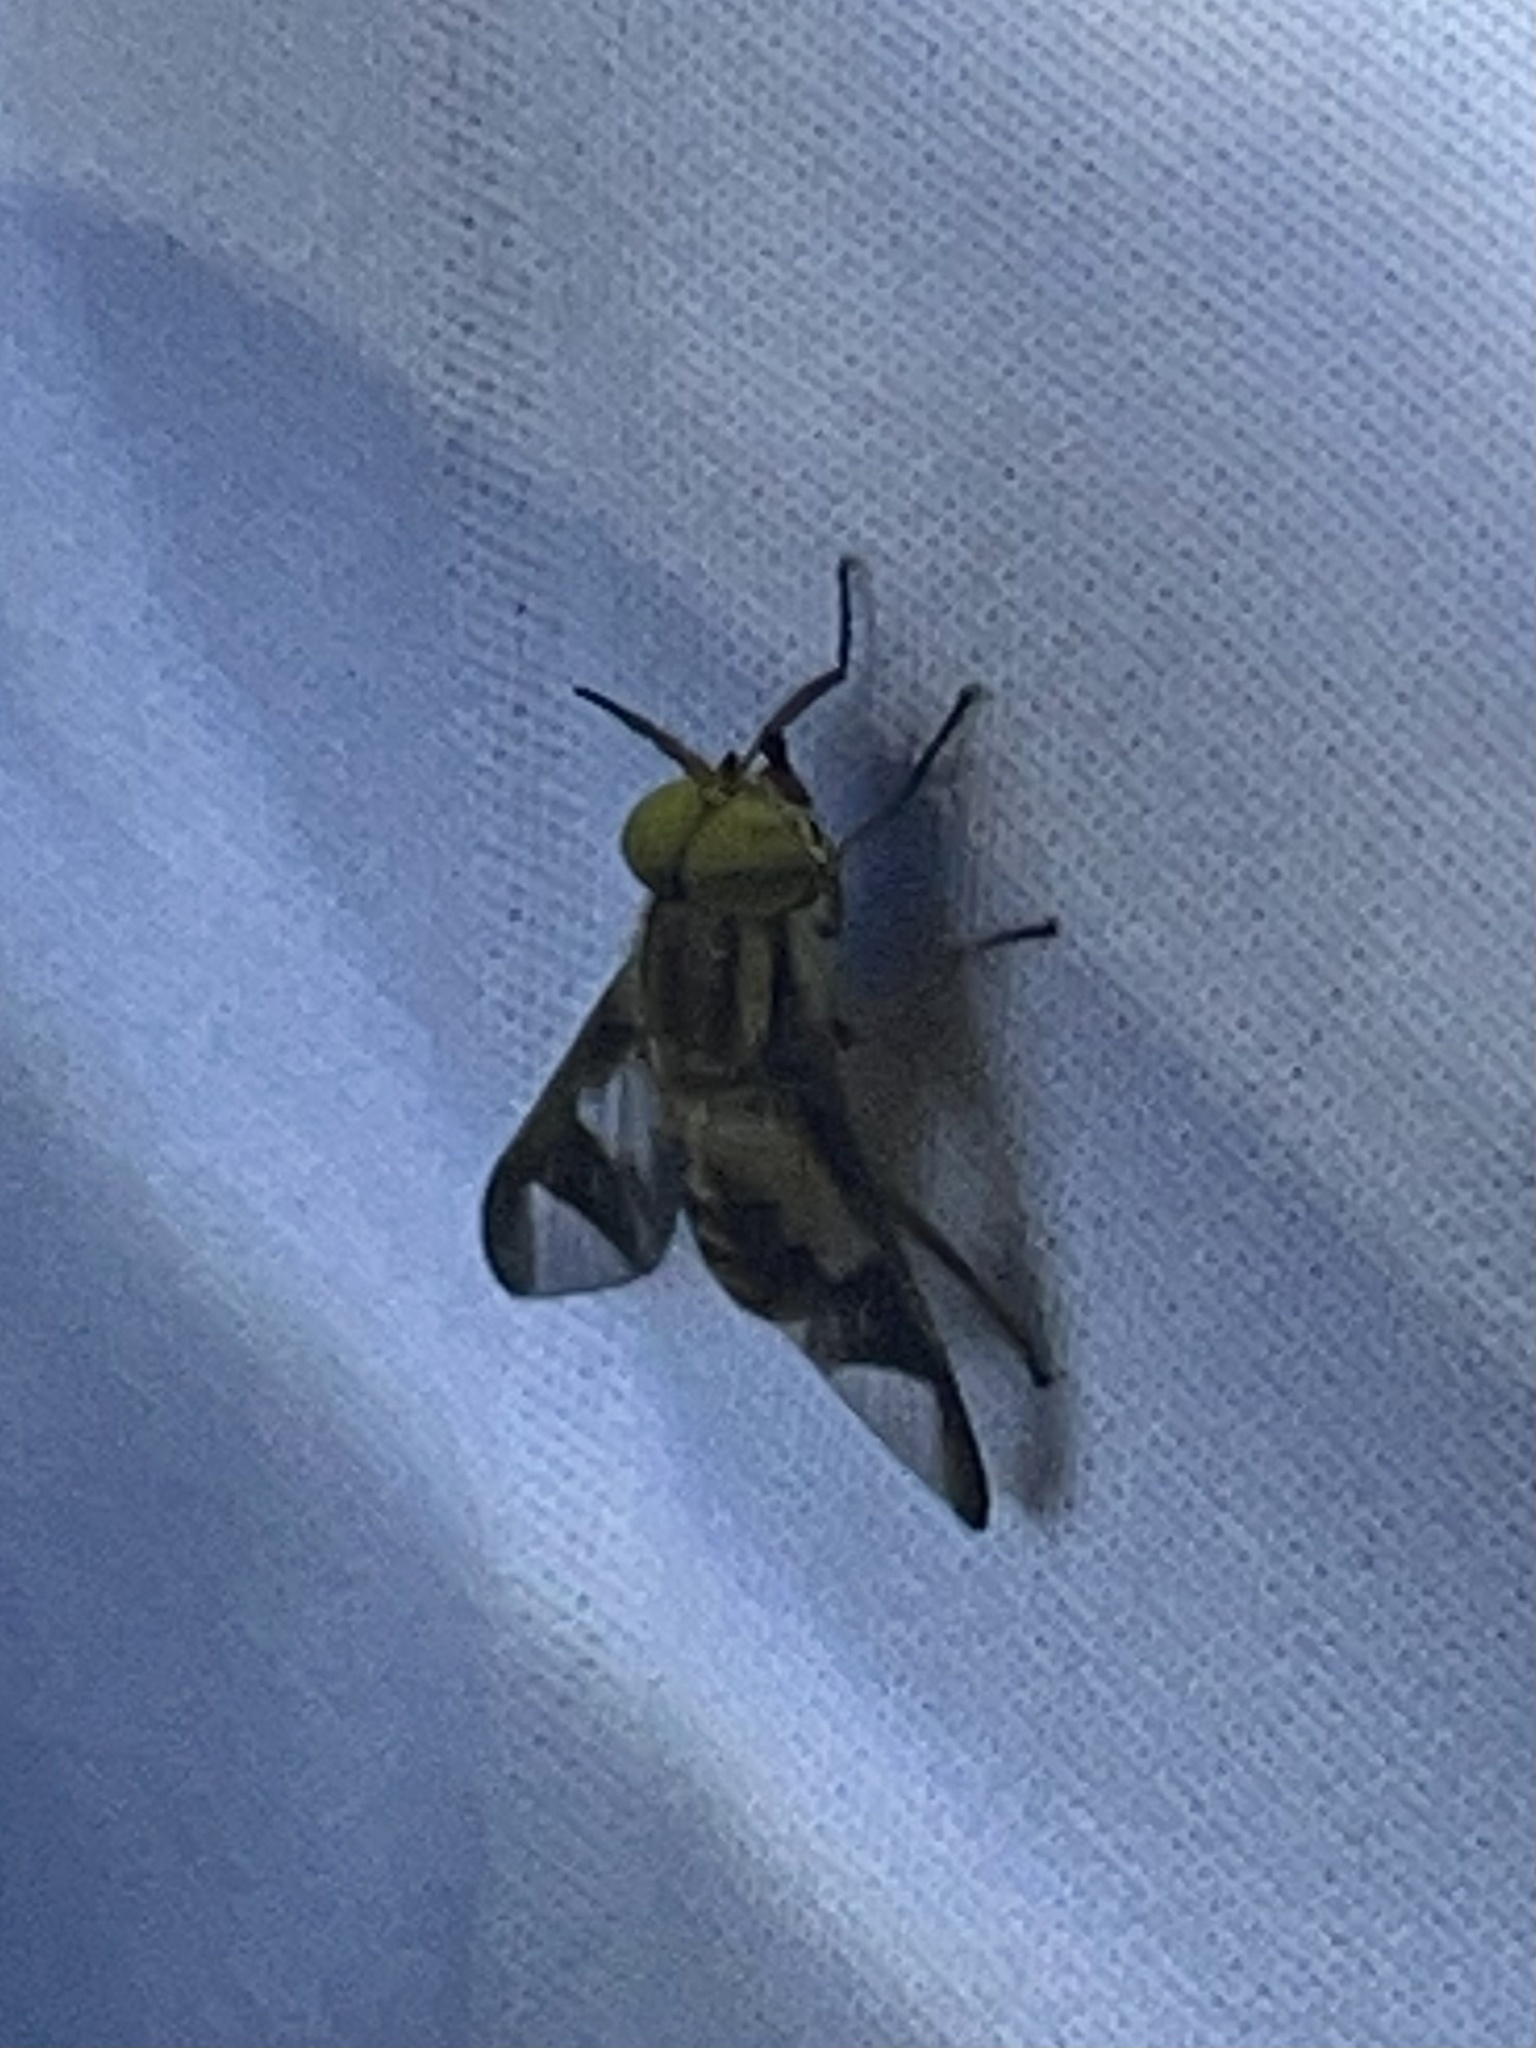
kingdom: Animalia
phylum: Arthropoda
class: Insecta
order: Diptera
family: Tabanidae
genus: Chrysops
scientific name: Chrysops flavidus
